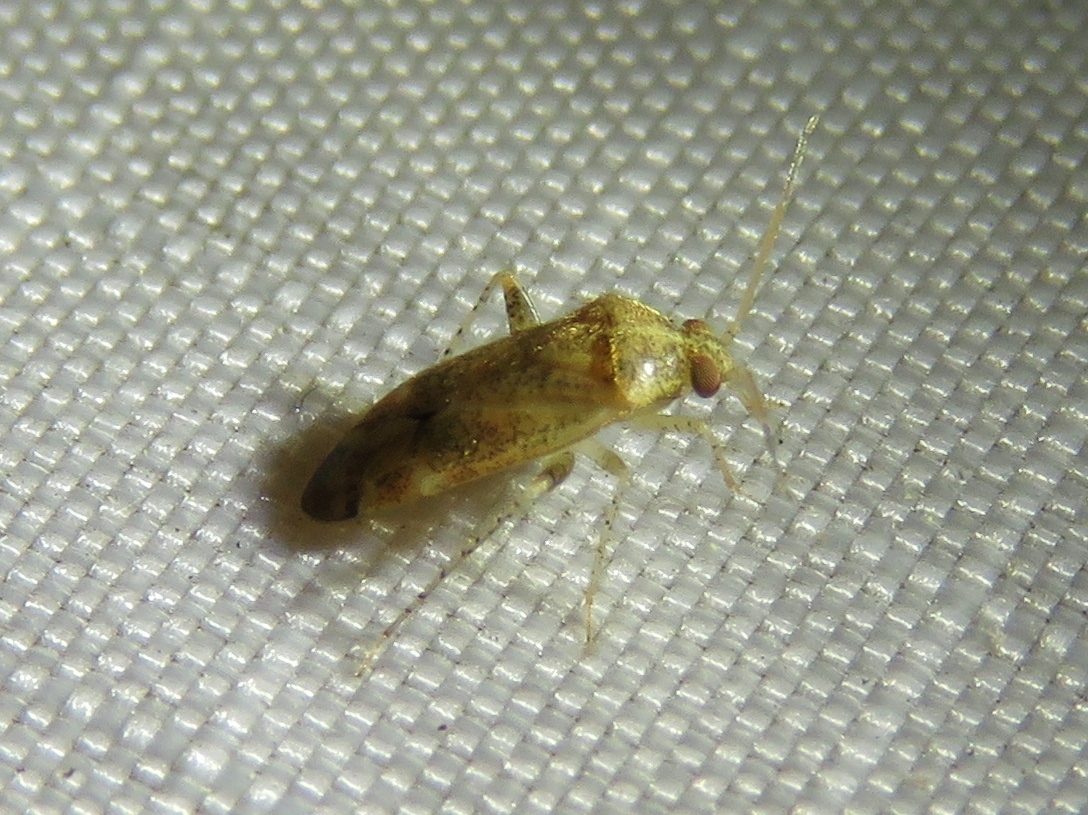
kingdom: Animalia
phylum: Arthropoda
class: Insecta
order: Hemiptera
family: Miridae
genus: Hamatophylus
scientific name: Hamatophylus guttulosus
